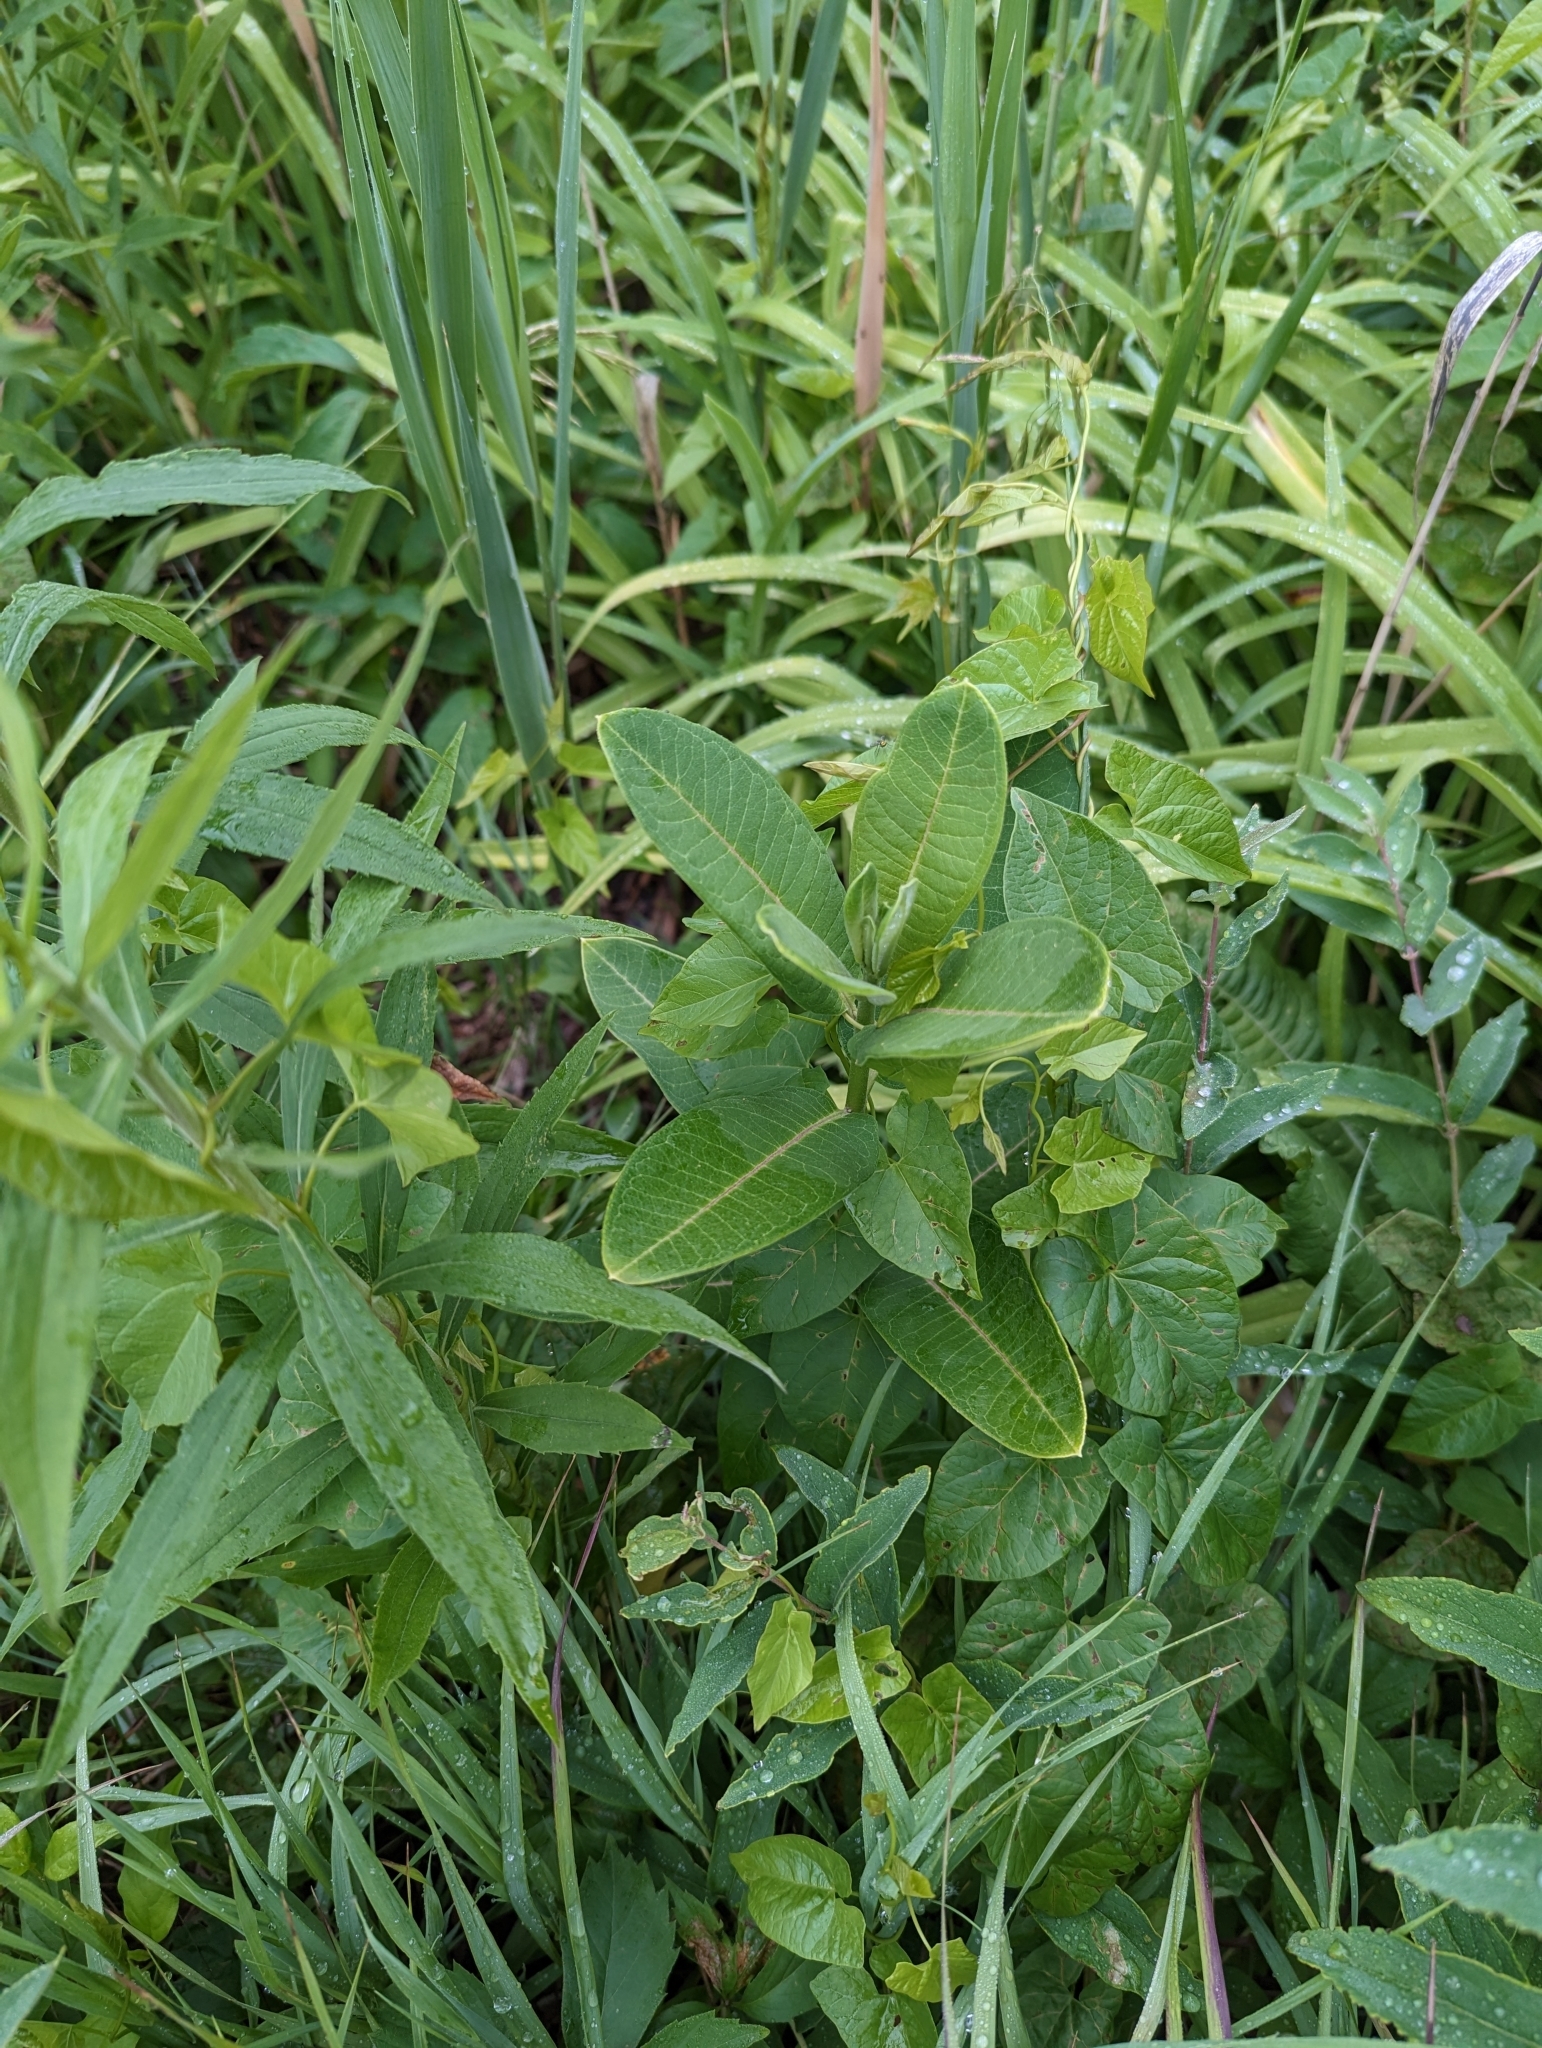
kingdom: Plantae
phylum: Tracheophyta
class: Magnoliopsida
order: Gentianales
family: Apocynaceae
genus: Asclepias
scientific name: Asclepias syriaca
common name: Common milkweed
